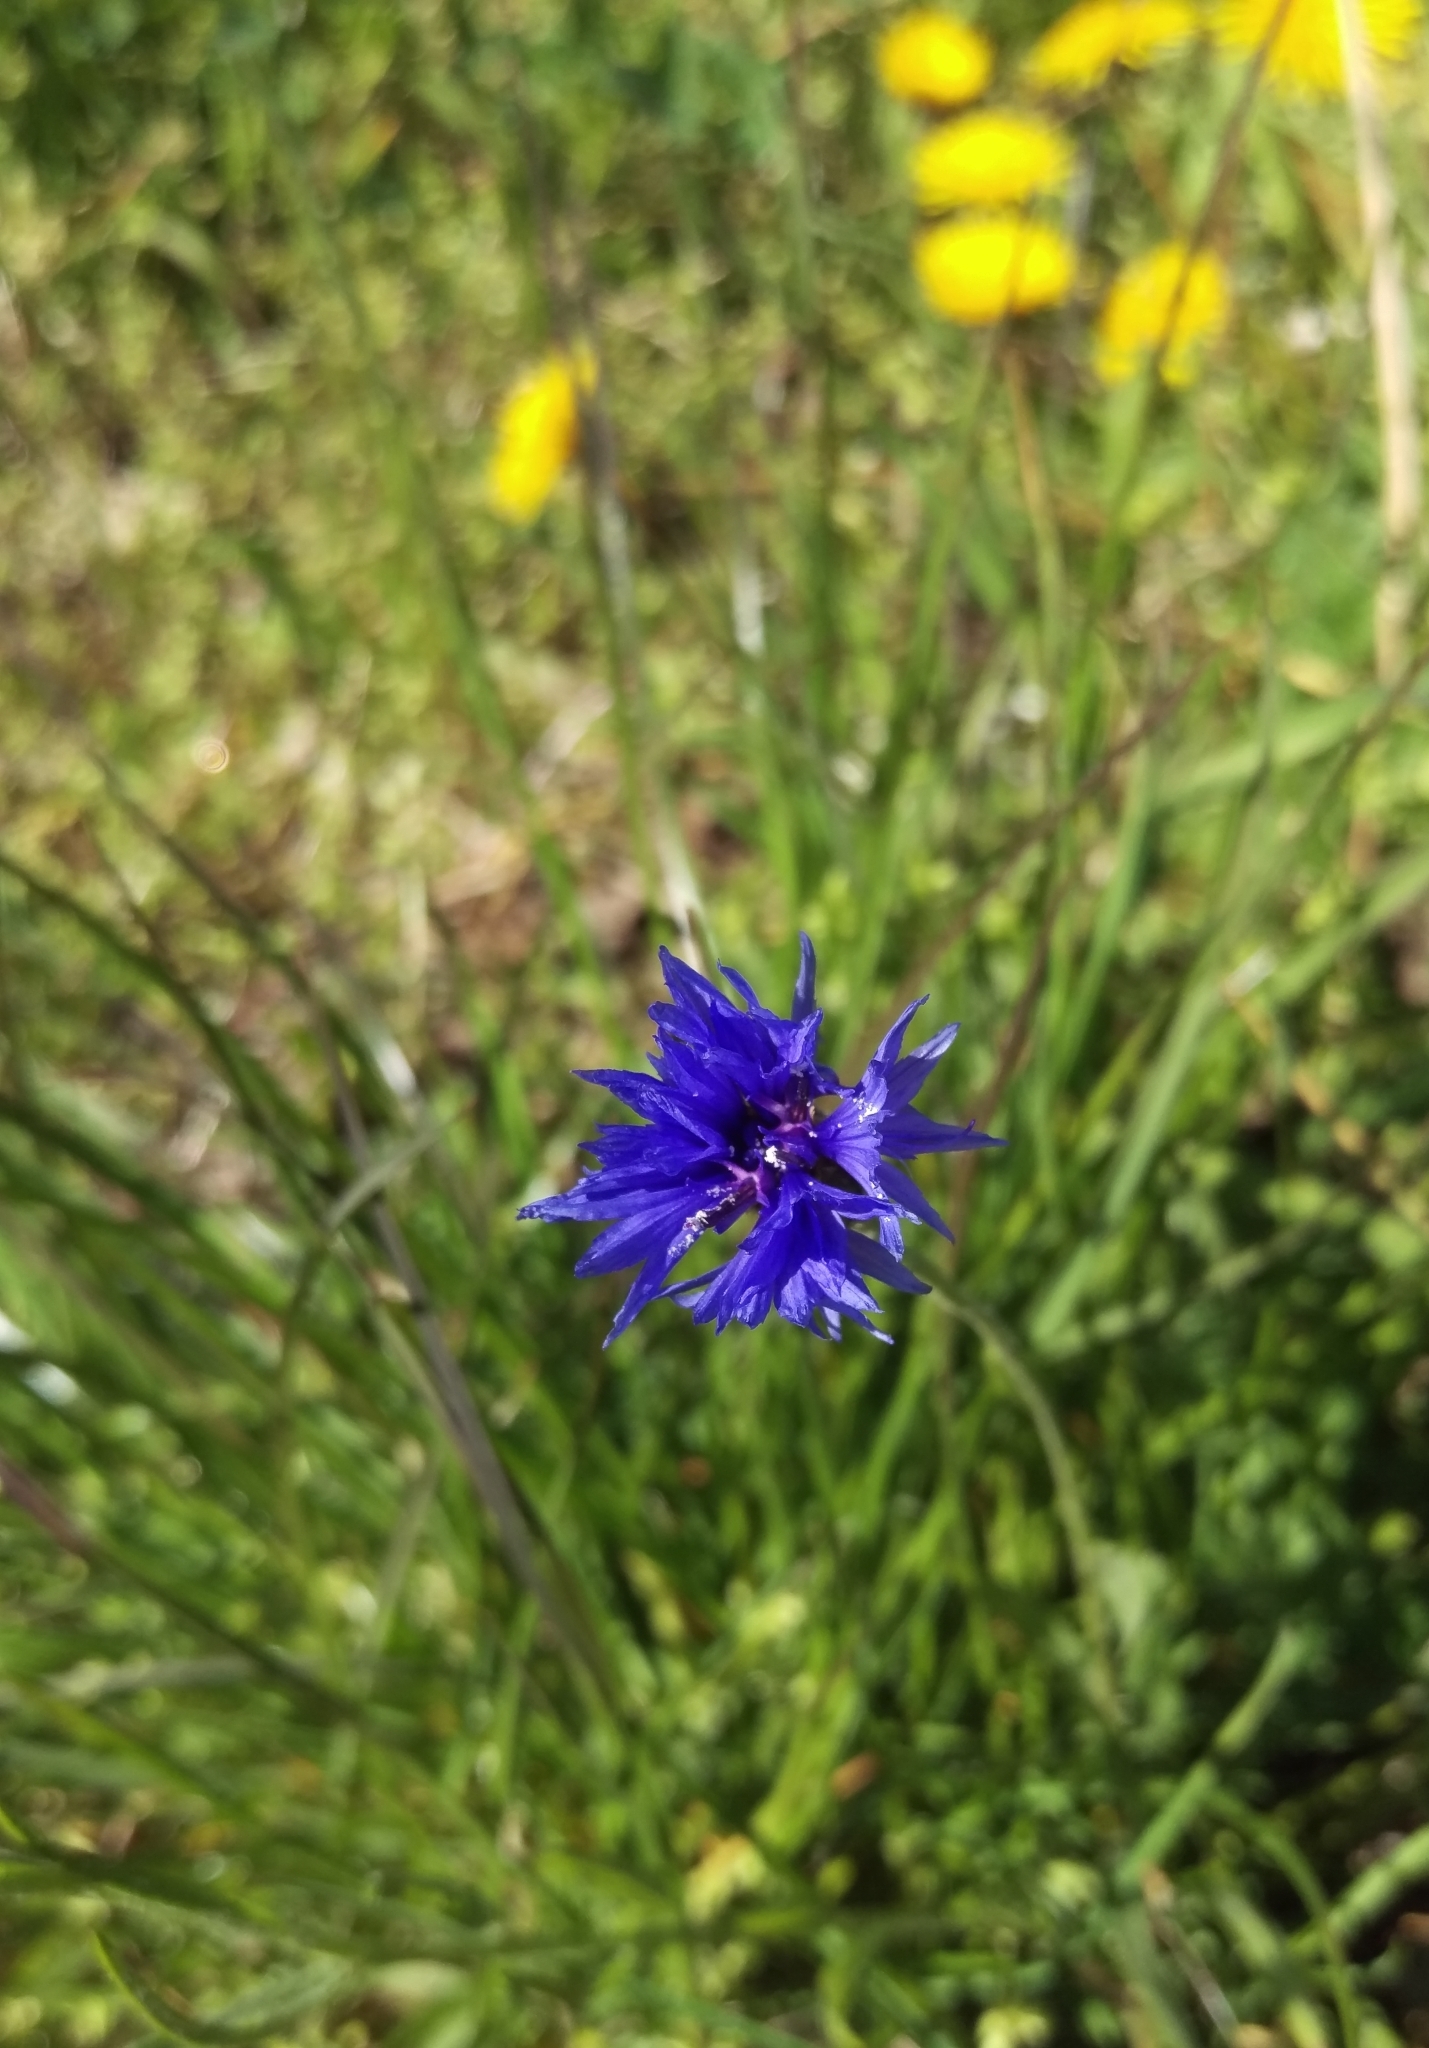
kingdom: Plantae
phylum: Tracheophyta
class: Magnoliopsida
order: Asterales
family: Asteraceae
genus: Centaurea
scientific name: Centaurea cyanus
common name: Cornflower
